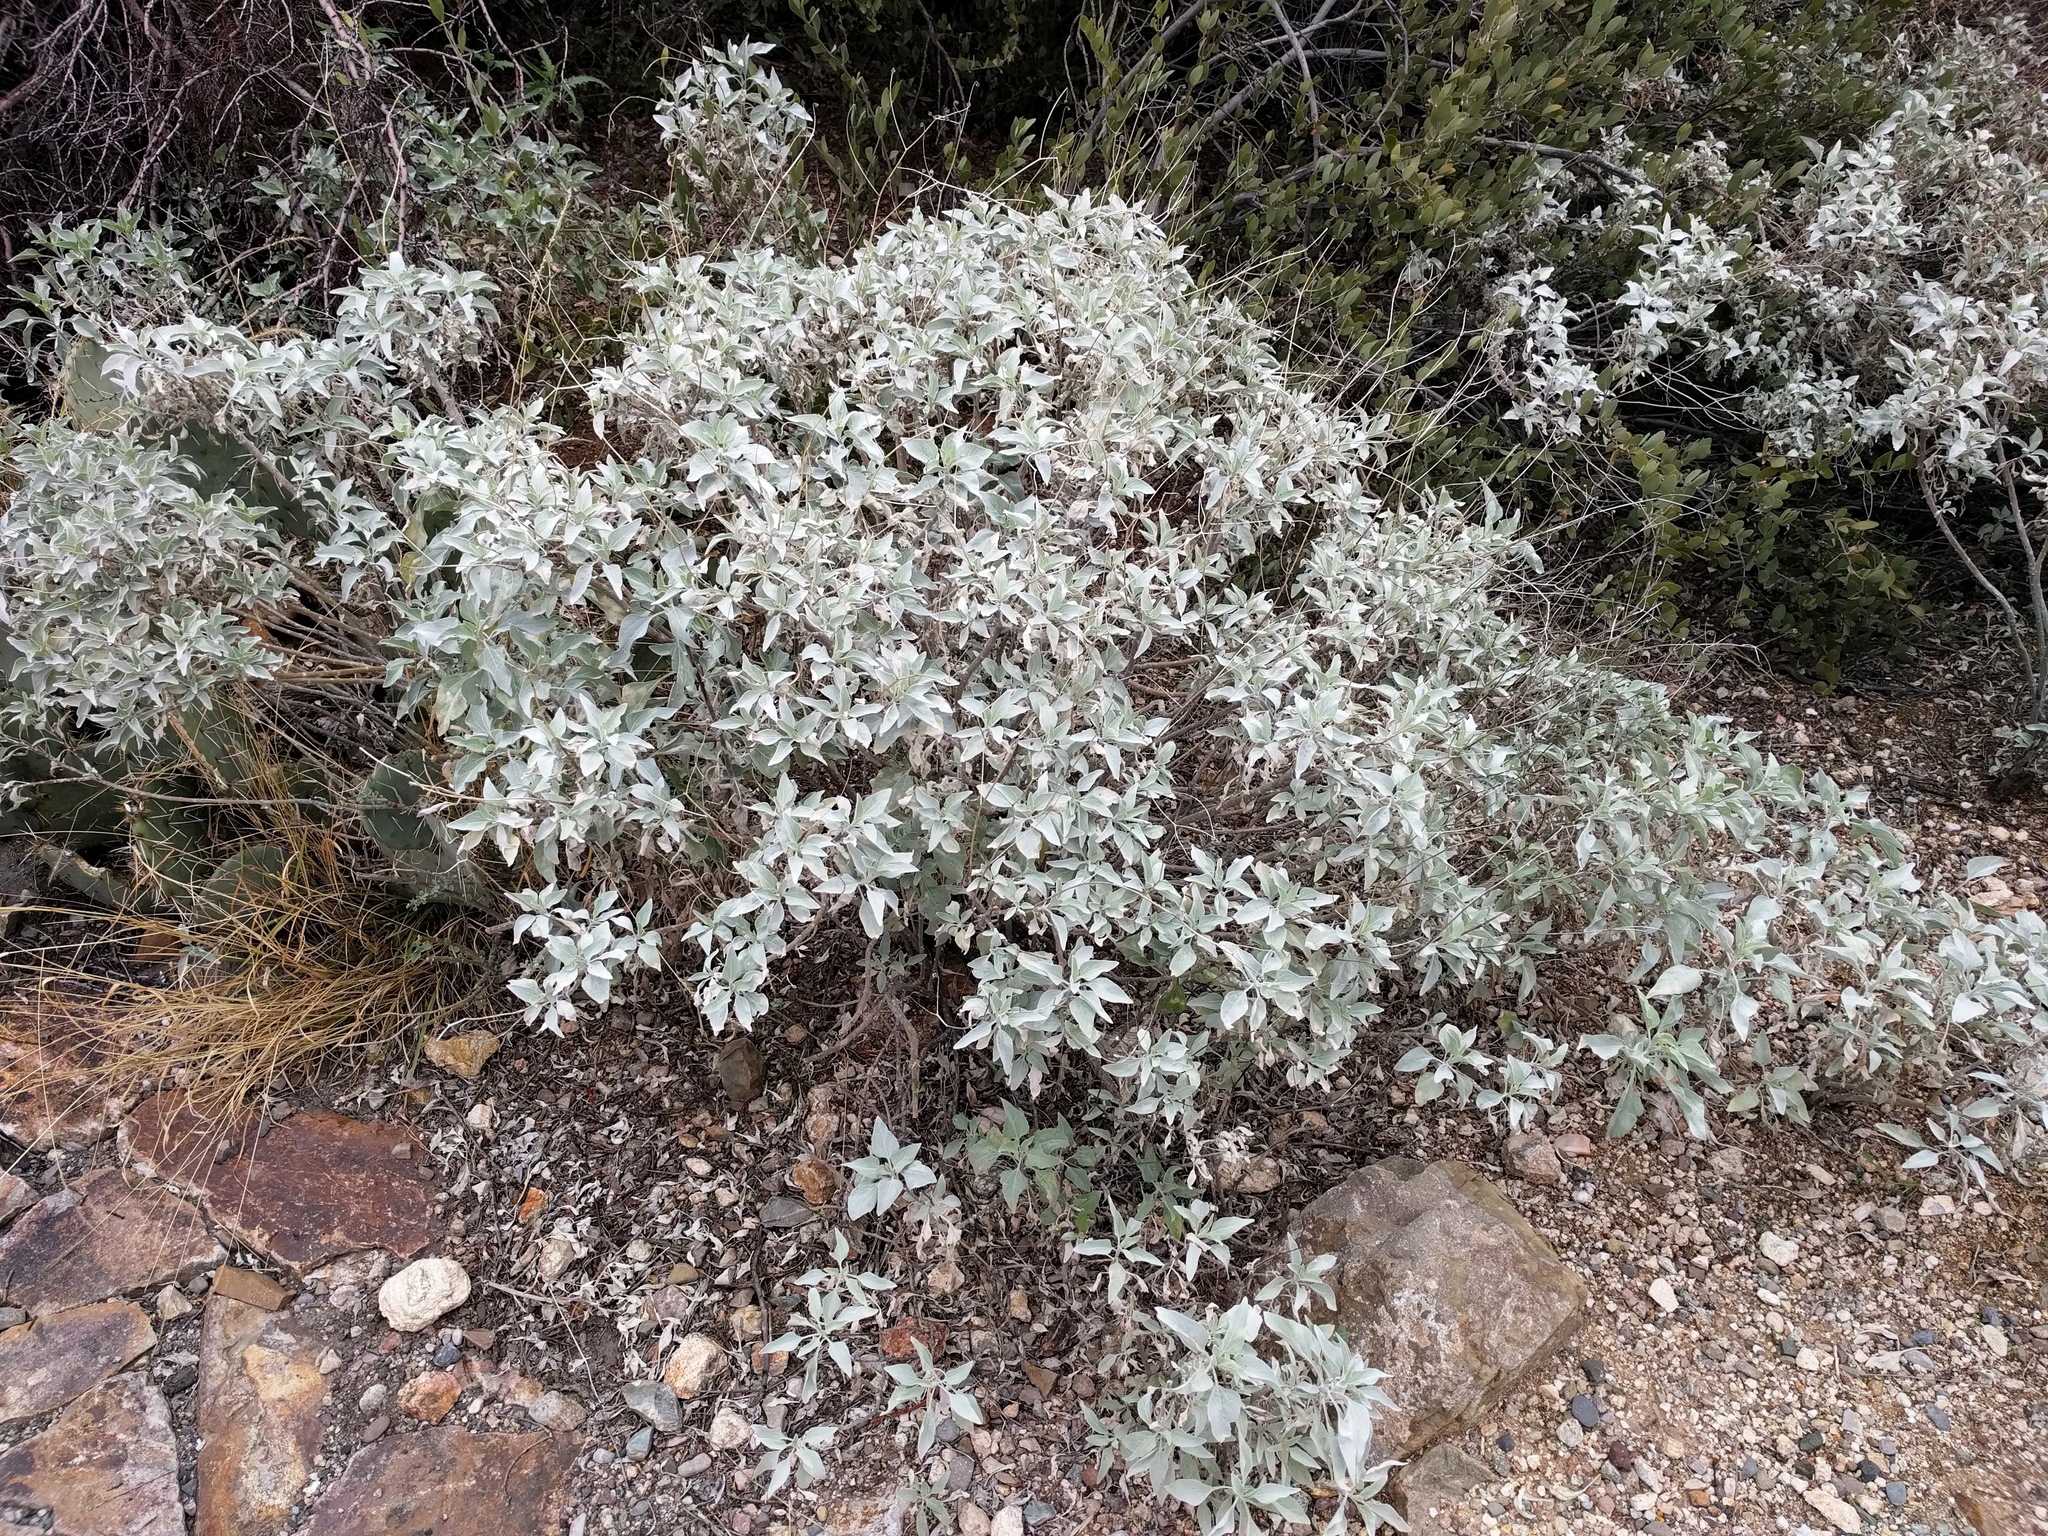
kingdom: Plantae
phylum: Tracheophyta
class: Magnoliopsida
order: Asterales
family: Asteraceae
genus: Encelia
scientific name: Encelia farinosa
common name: Brittlebush
